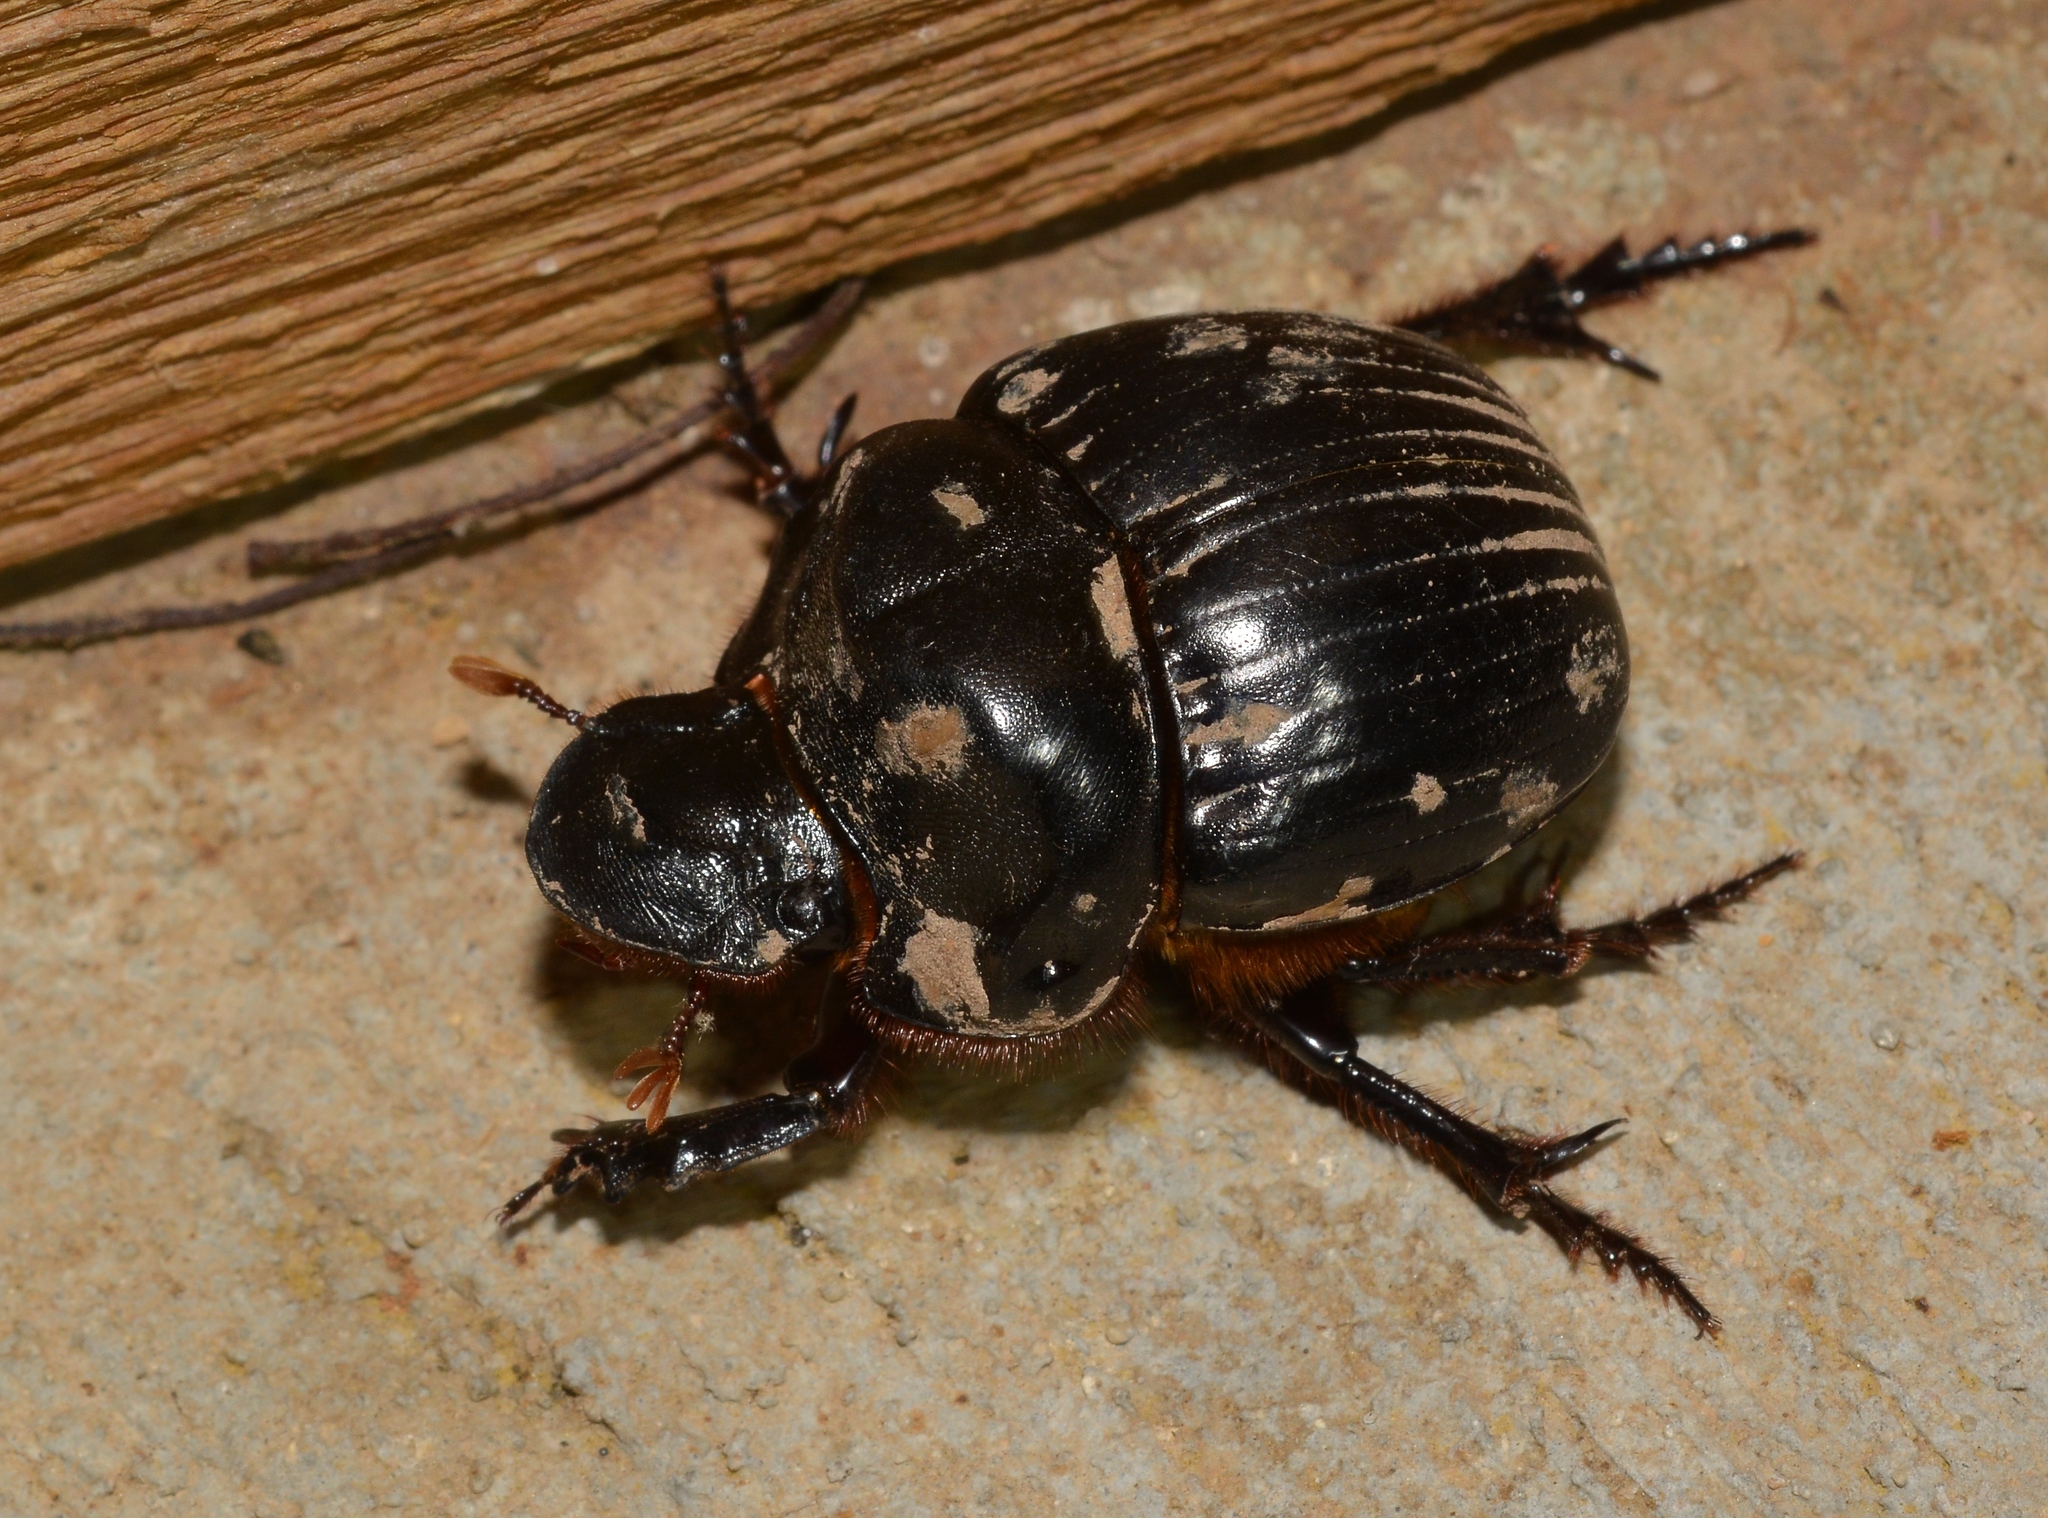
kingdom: Animalia
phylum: Arthropoda
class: Insecta
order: Coleoptera
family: Scarabaeidae
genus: Dichotomius
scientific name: Dichotomius carolinus
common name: Carolina copris
